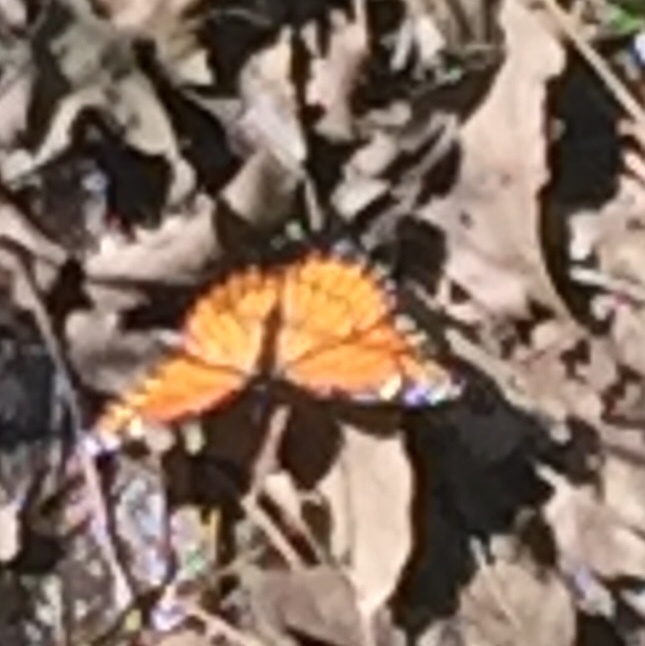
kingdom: Animalia
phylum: Arthropoda
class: Insecta
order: Lepidoptera
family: Nymphalidae
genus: Limenitis
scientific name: Limenitis archippus
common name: Viceroy
